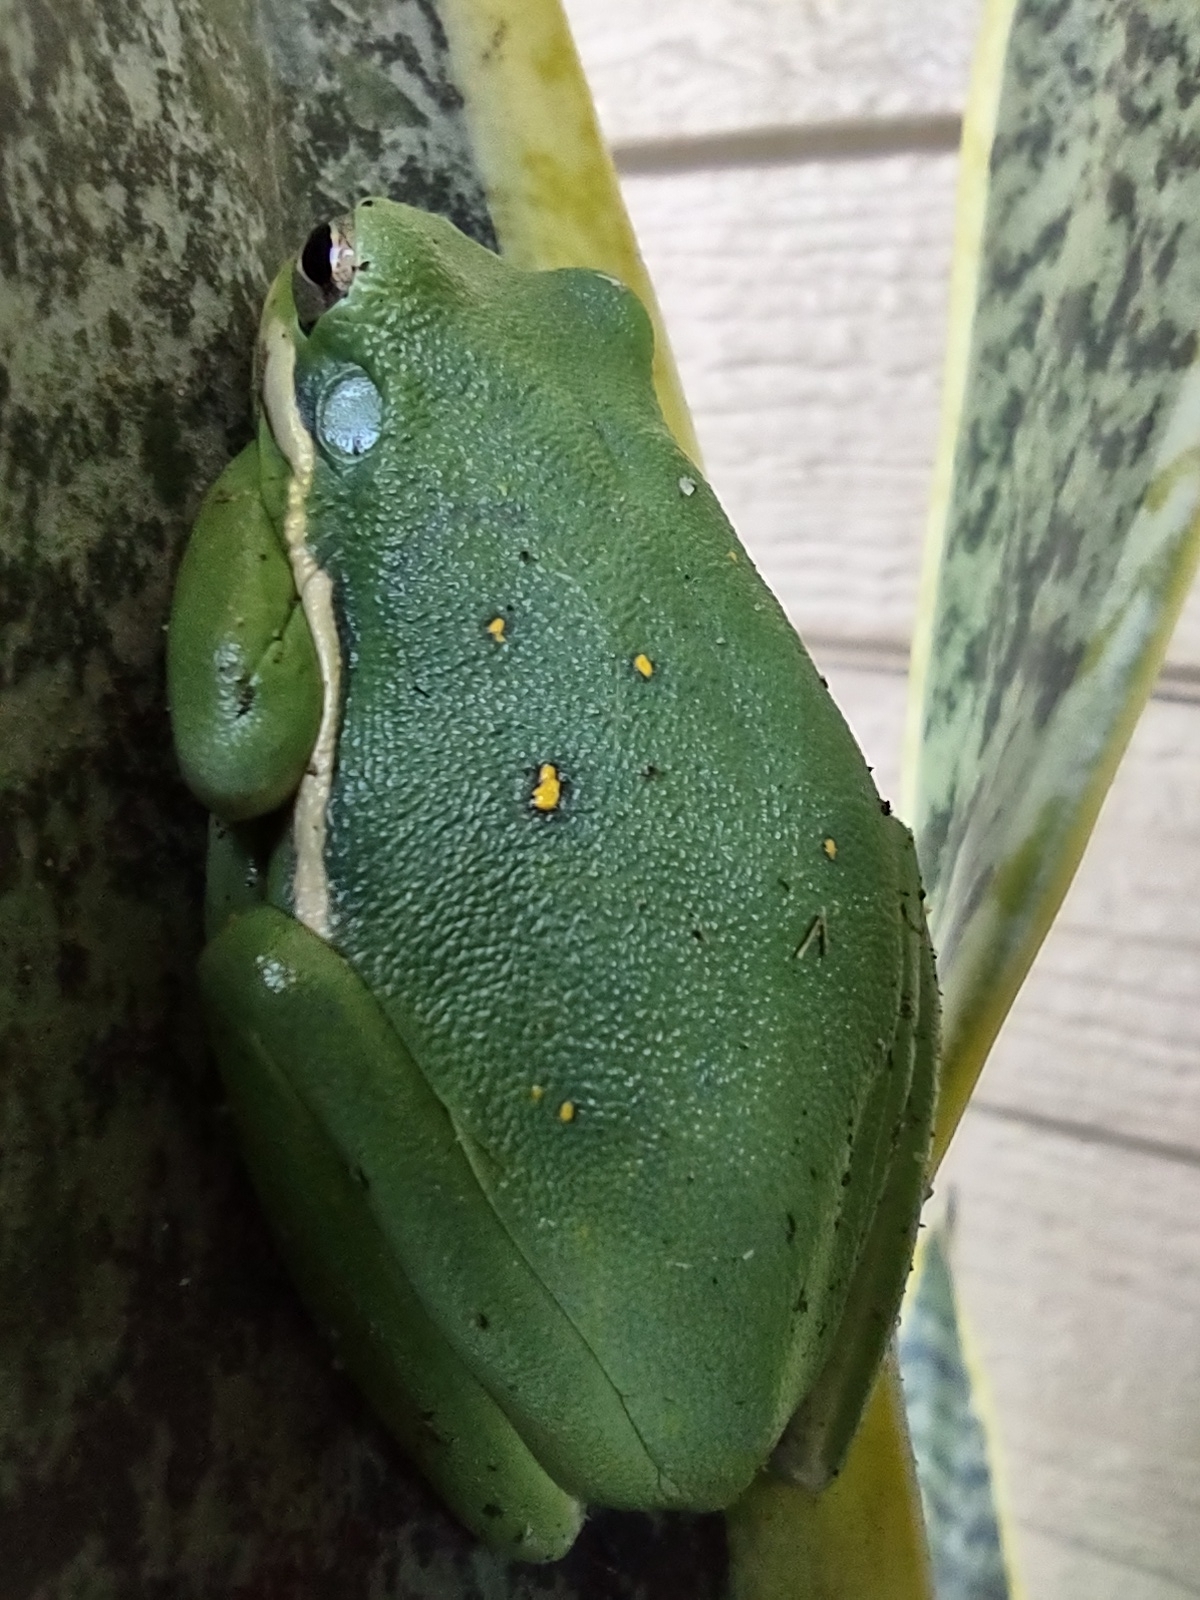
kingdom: Animalia
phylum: Chordata
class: Amphibia
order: Anura
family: Hylidae
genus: Dryophytes
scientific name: Dryophytes cinereus
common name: Green treefrog
